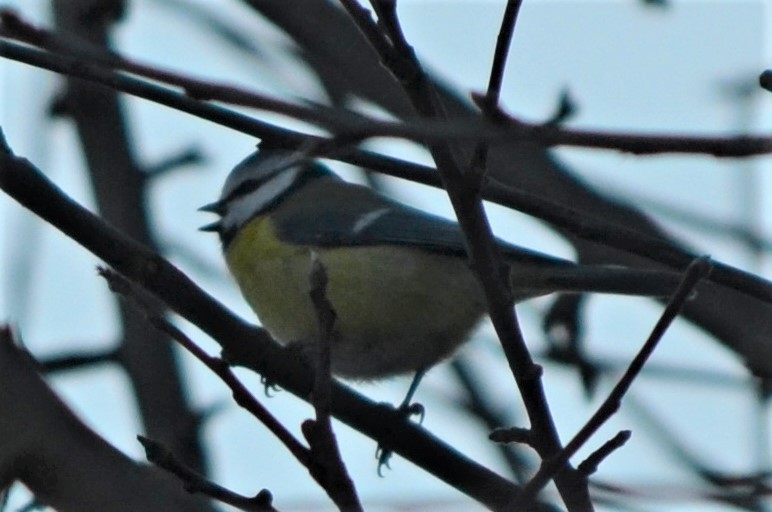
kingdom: Animalia
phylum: Chordata
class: Aves
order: Passeriformes
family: Paridae
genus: Cyanistes
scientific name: Cyanistes caeruleus
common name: Eurasian blue tit
